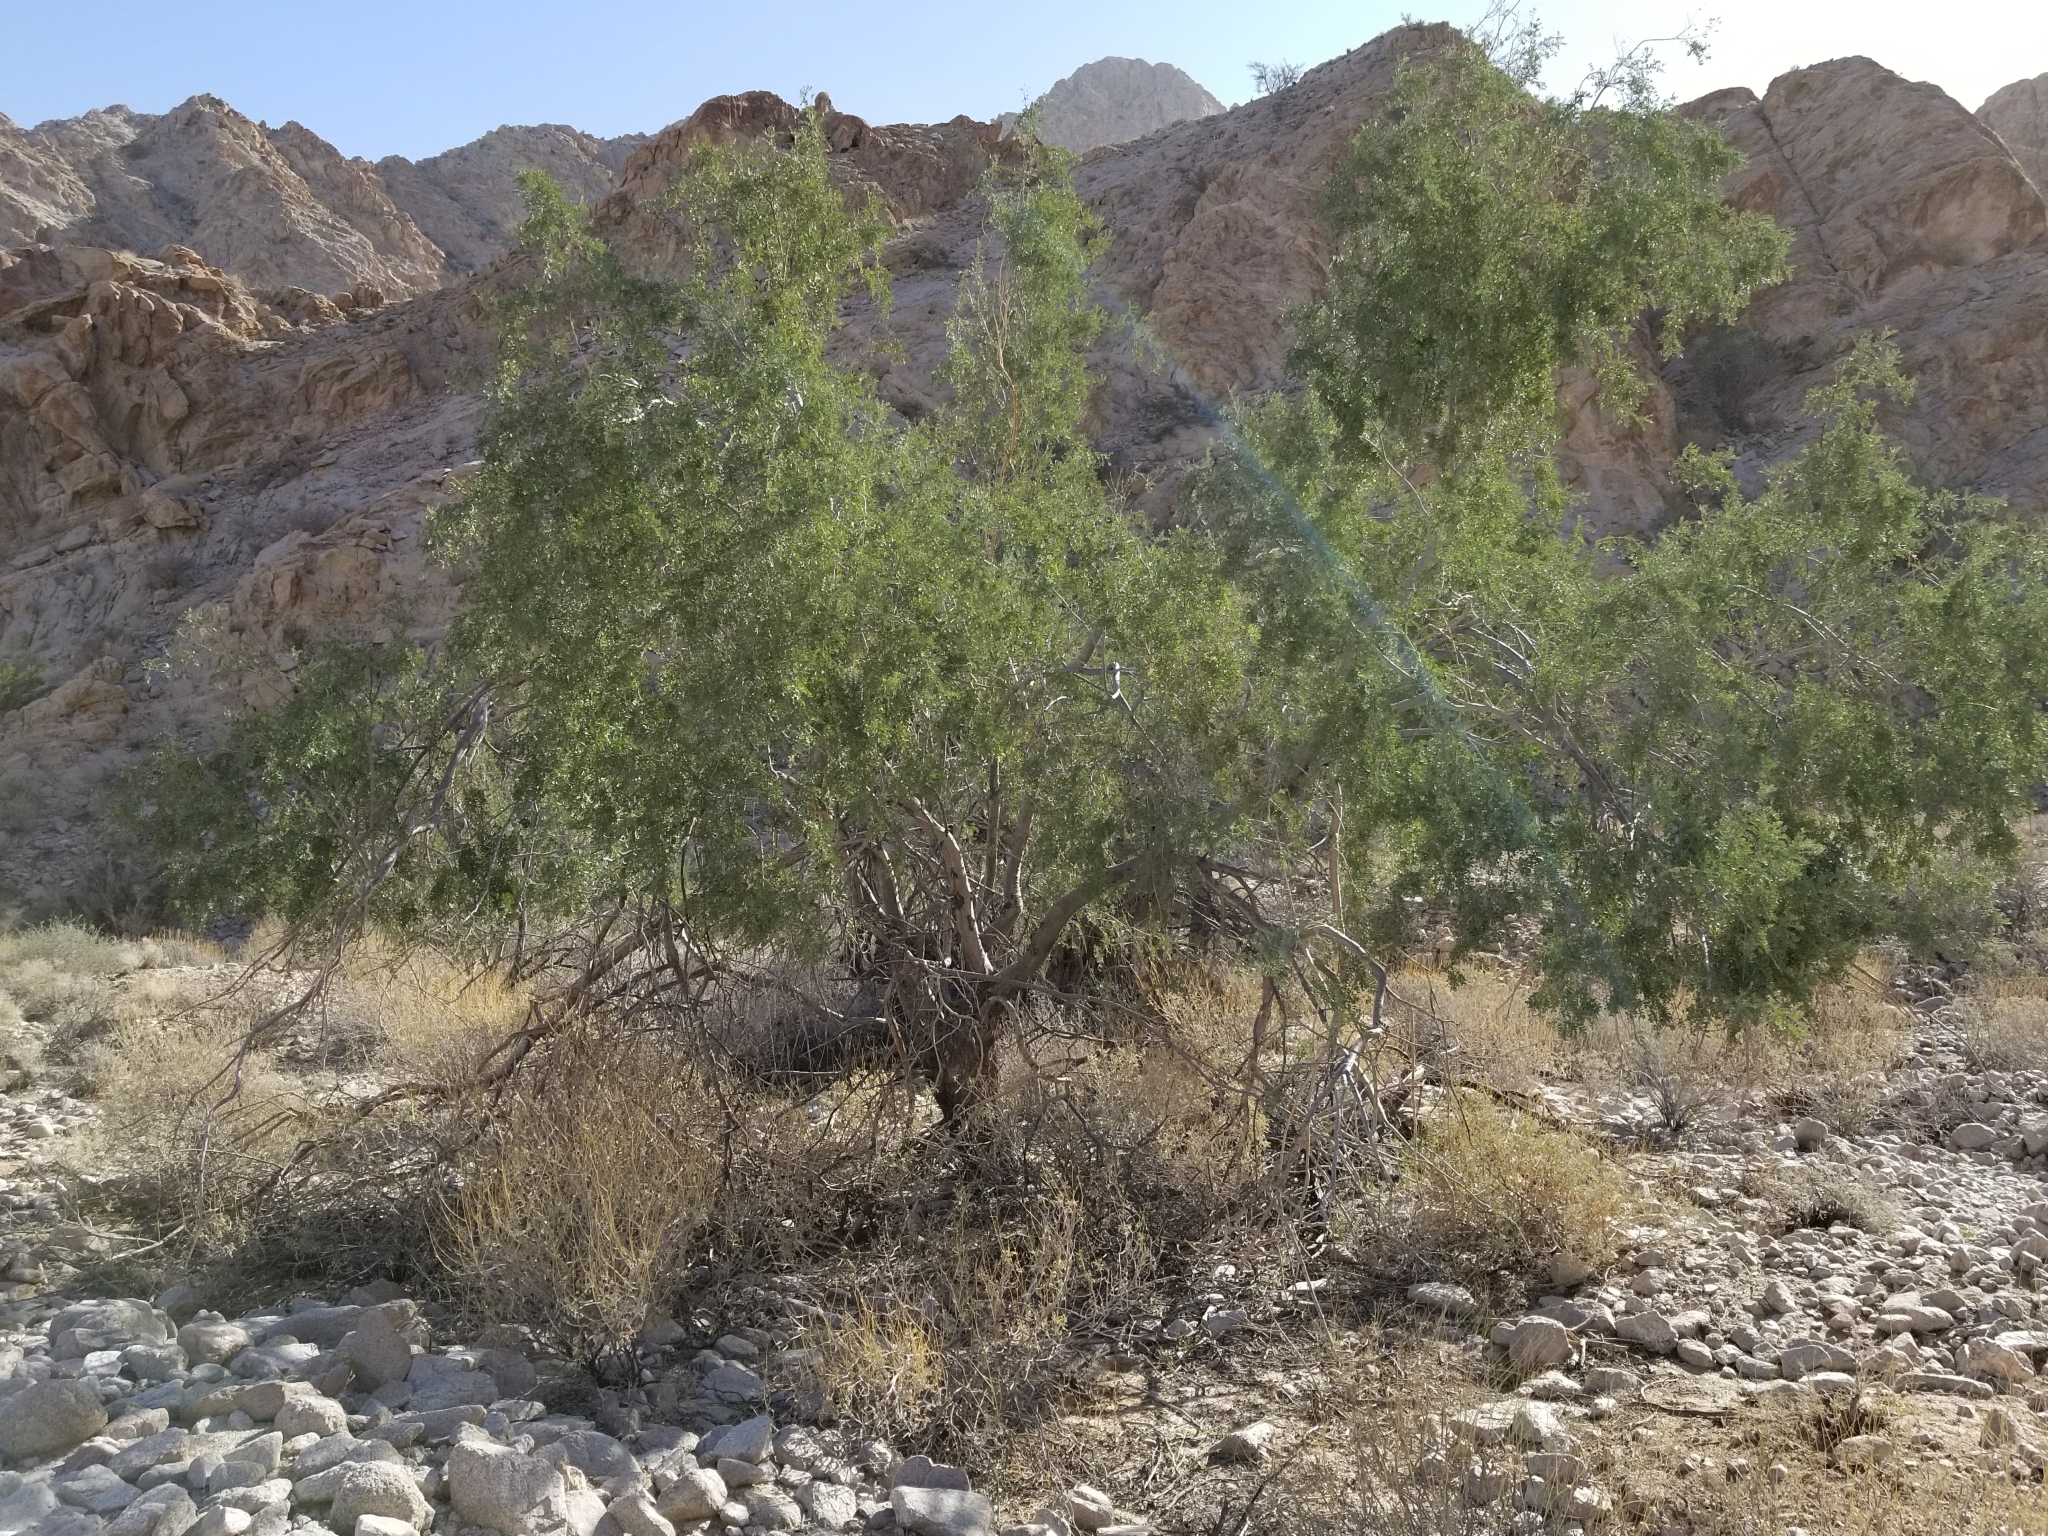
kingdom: Plantae
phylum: Tracheophyta
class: Magnoliopsida
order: Fabales
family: Fabaceae
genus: Olneya
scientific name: Olneya tesota
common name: Desert ironwood
